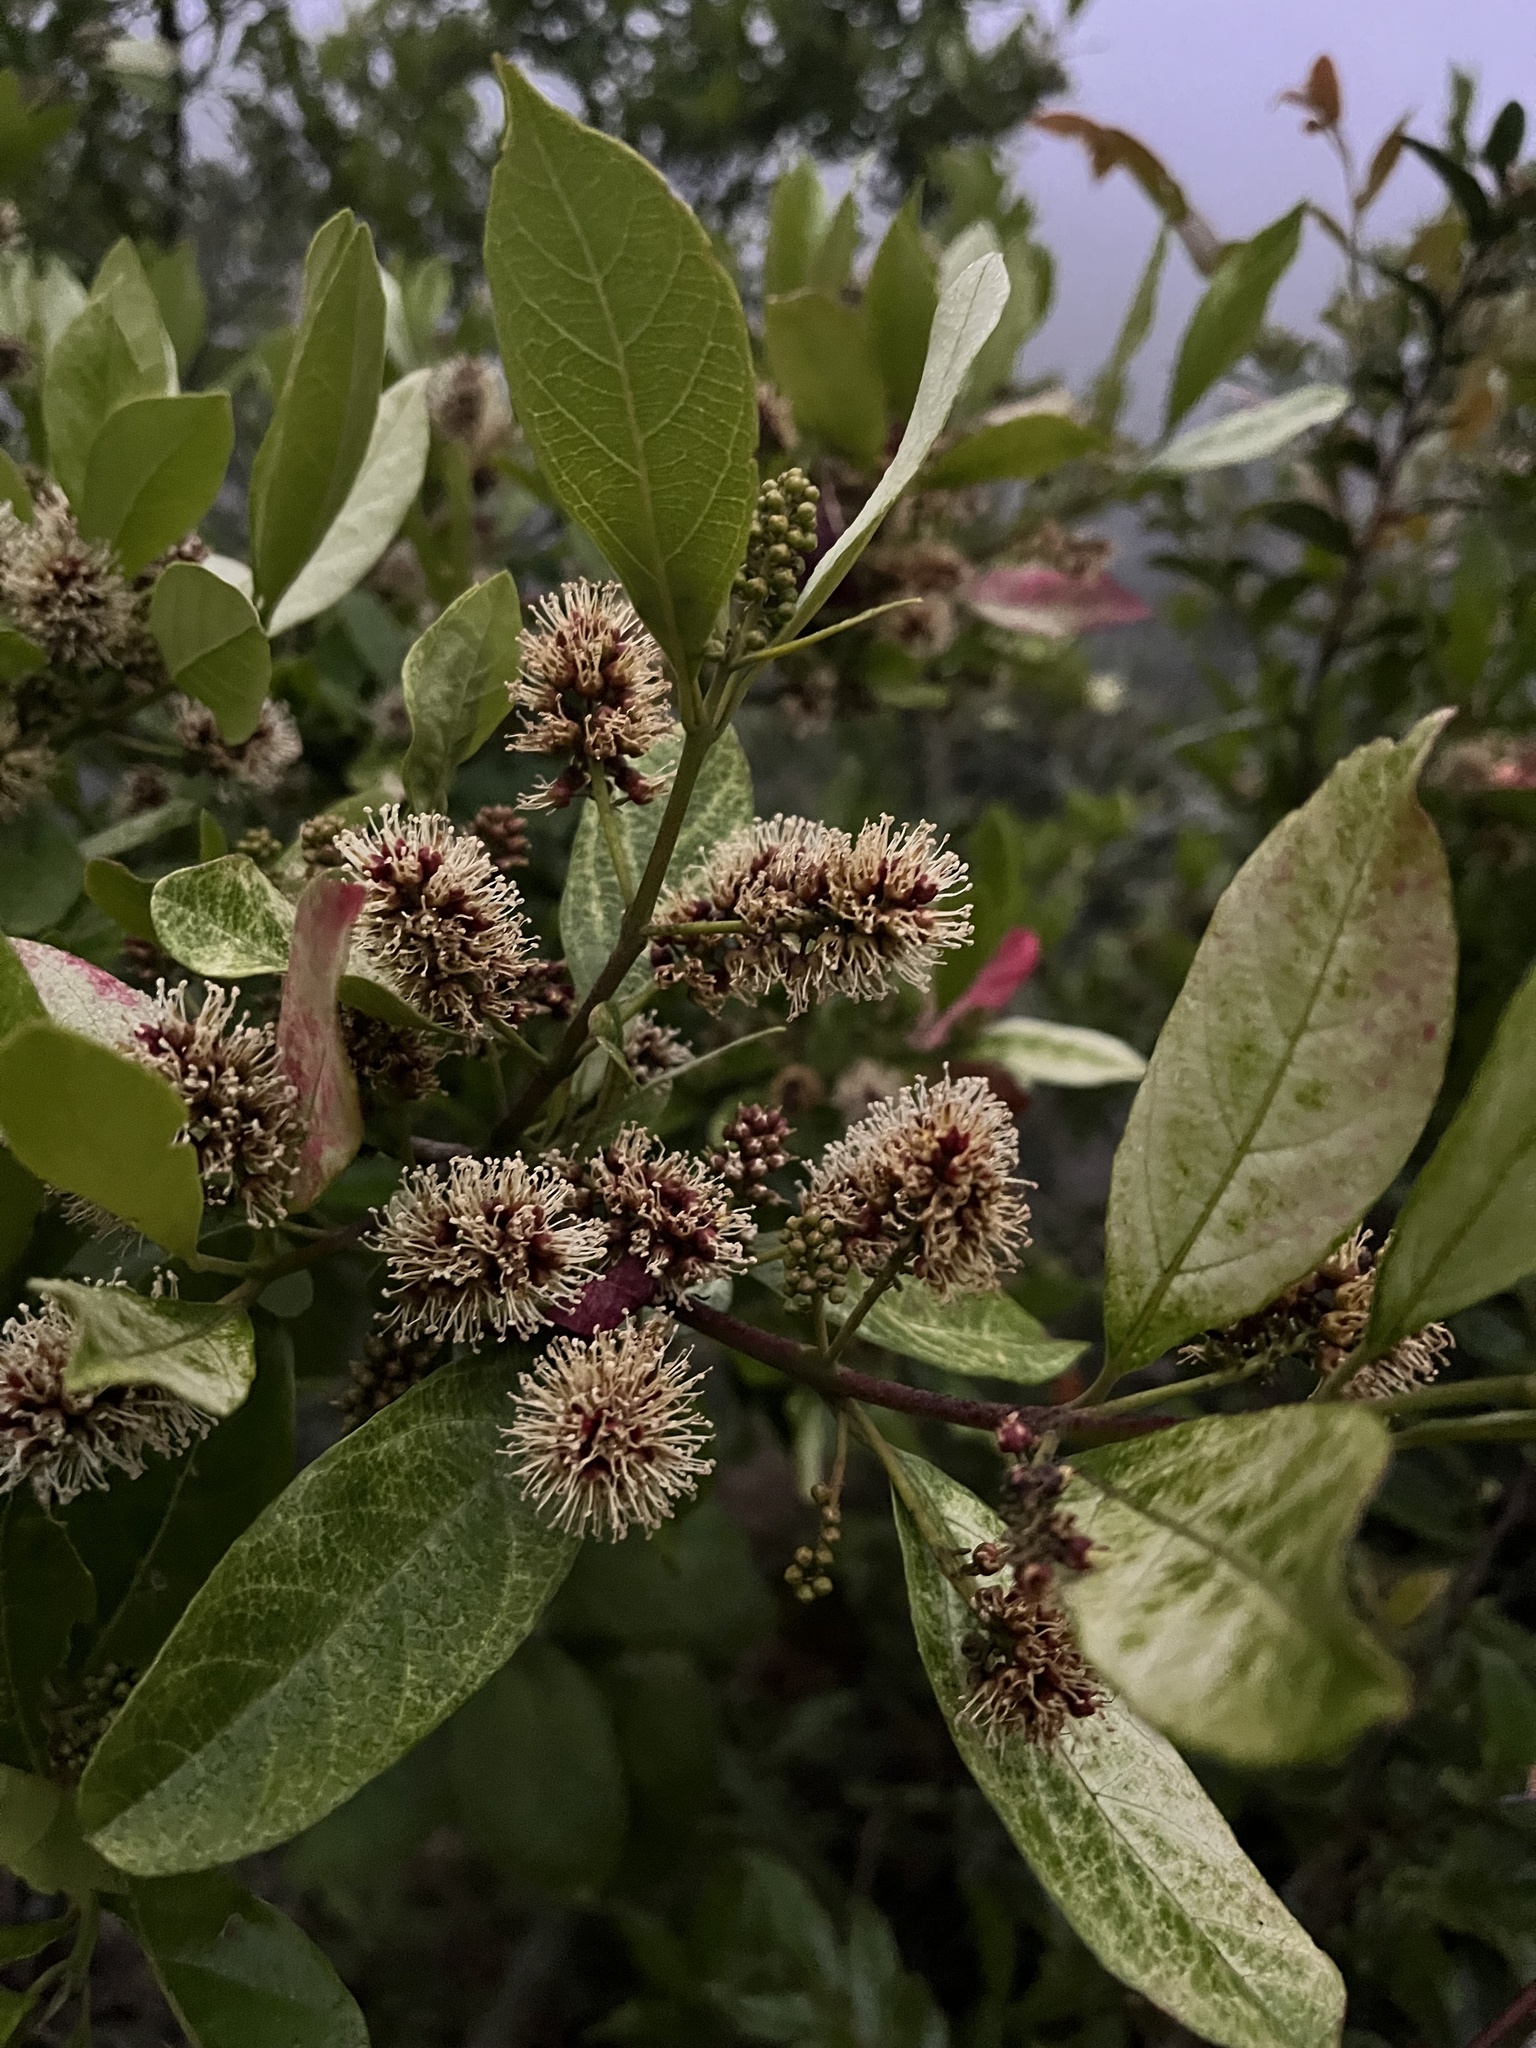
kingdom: Plantae
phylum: Tracheophyta
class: Magnoliopsida
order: Myrtales
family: Combretaceae
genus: Combretum
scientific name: Combretum kraussii
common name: Forest bushwillow
